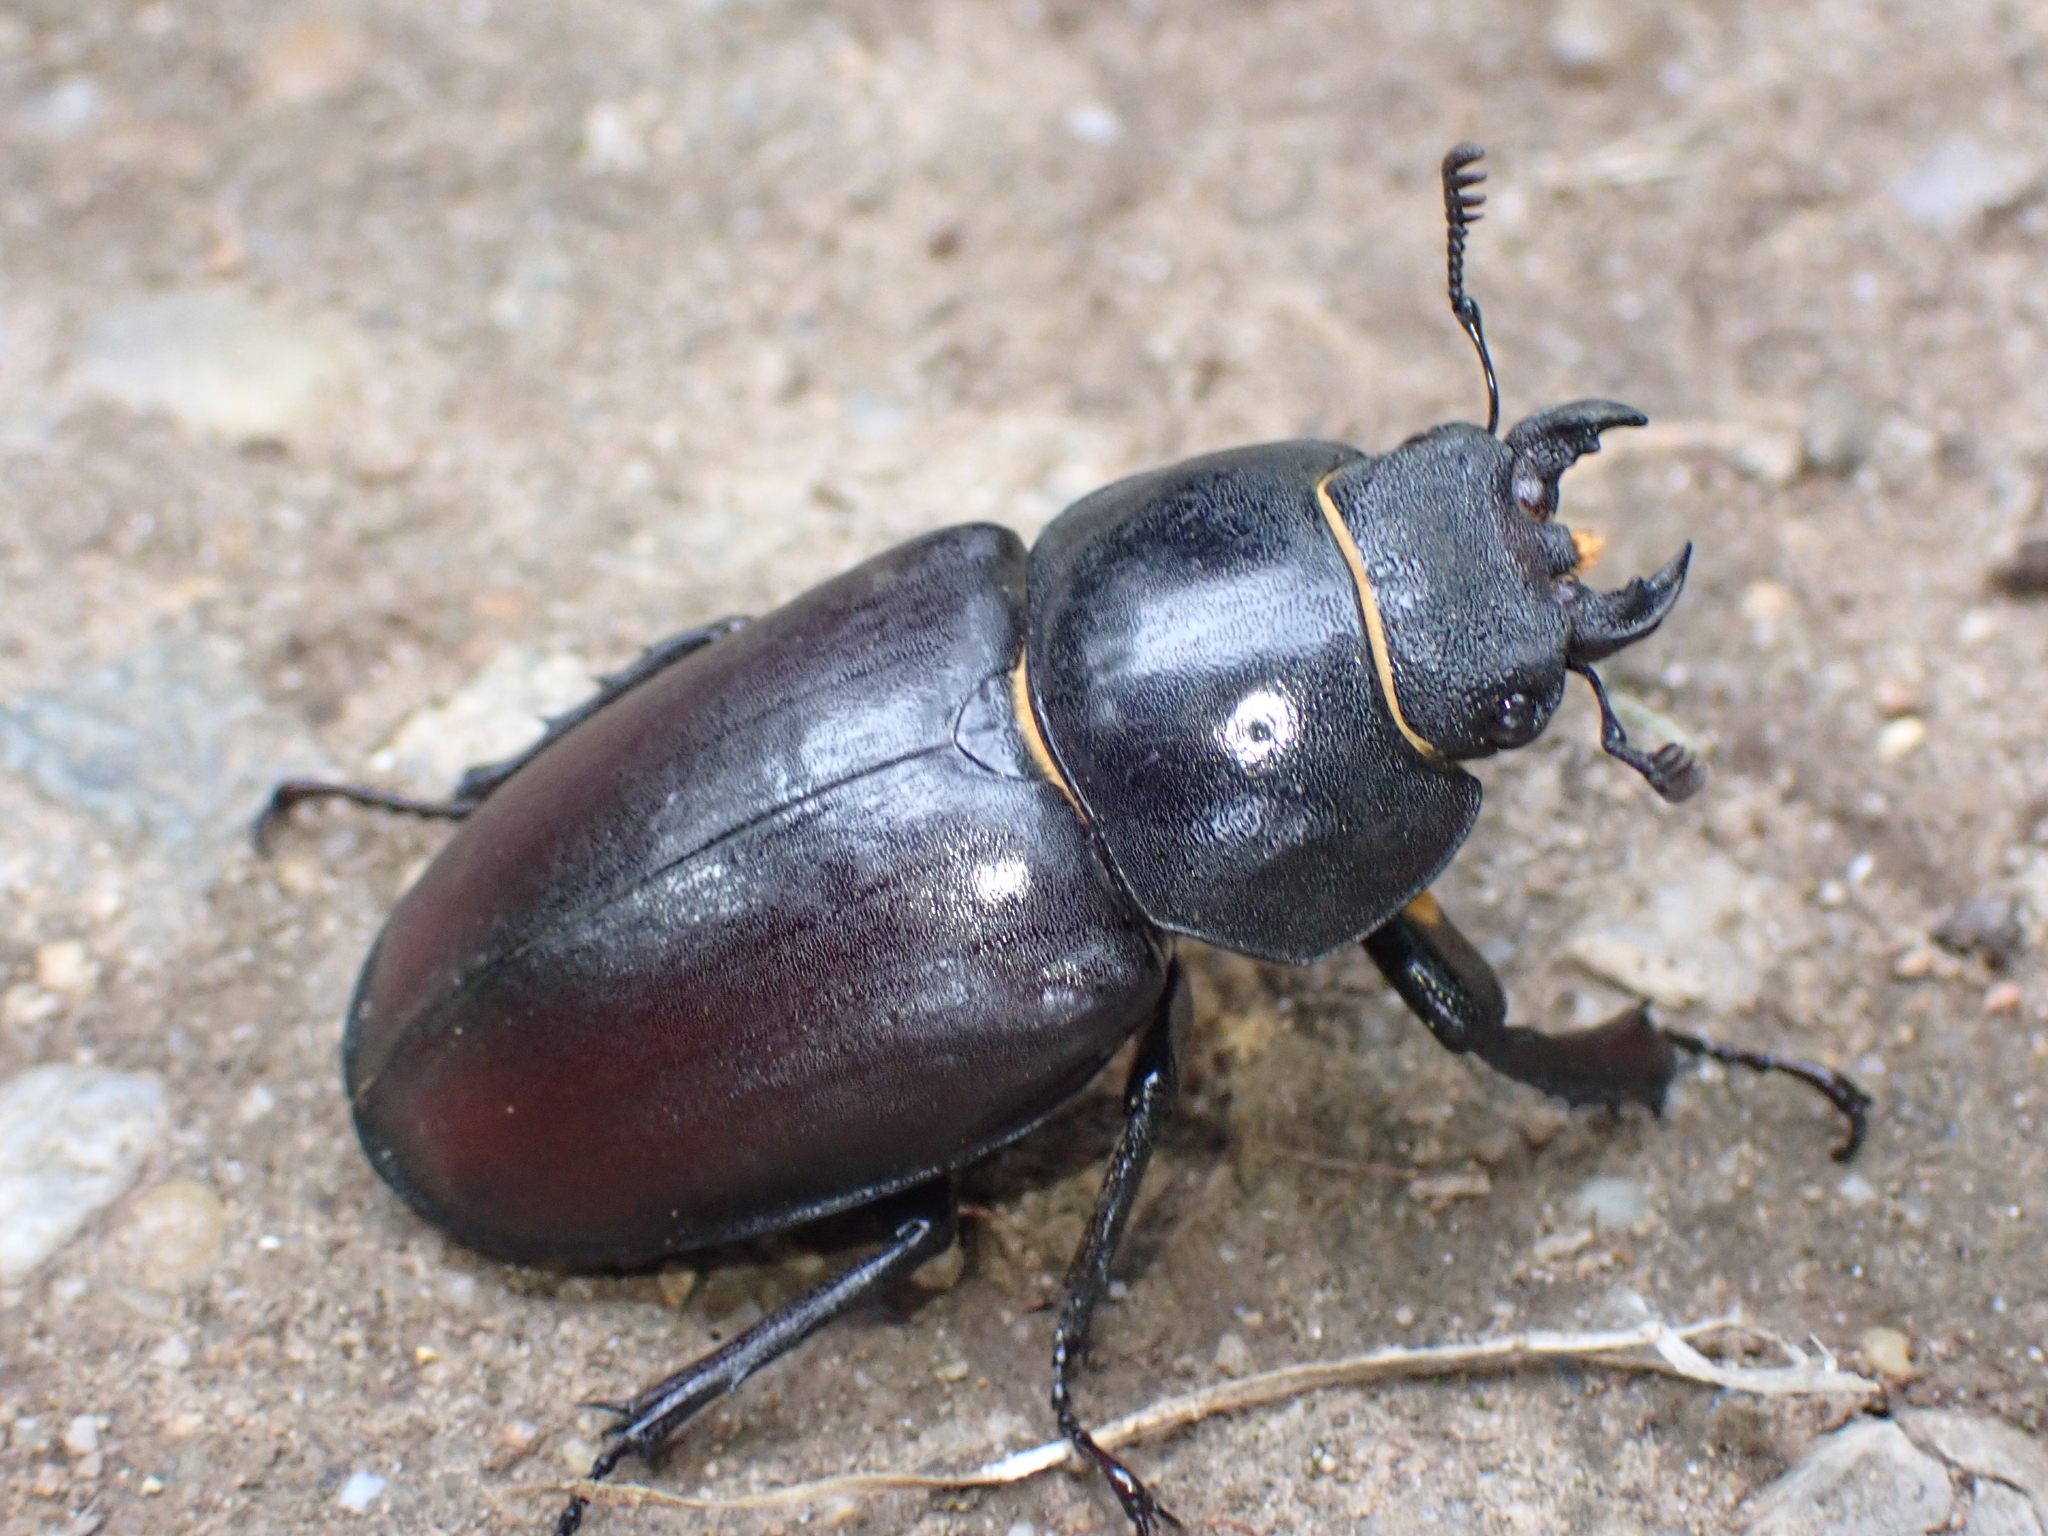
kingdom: Animalia
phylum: Arthropoda
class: Insecta
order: Coleoptera
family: Lucanidae
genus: Lucanus
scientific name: Lucanus cervus
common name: Stag beetle
